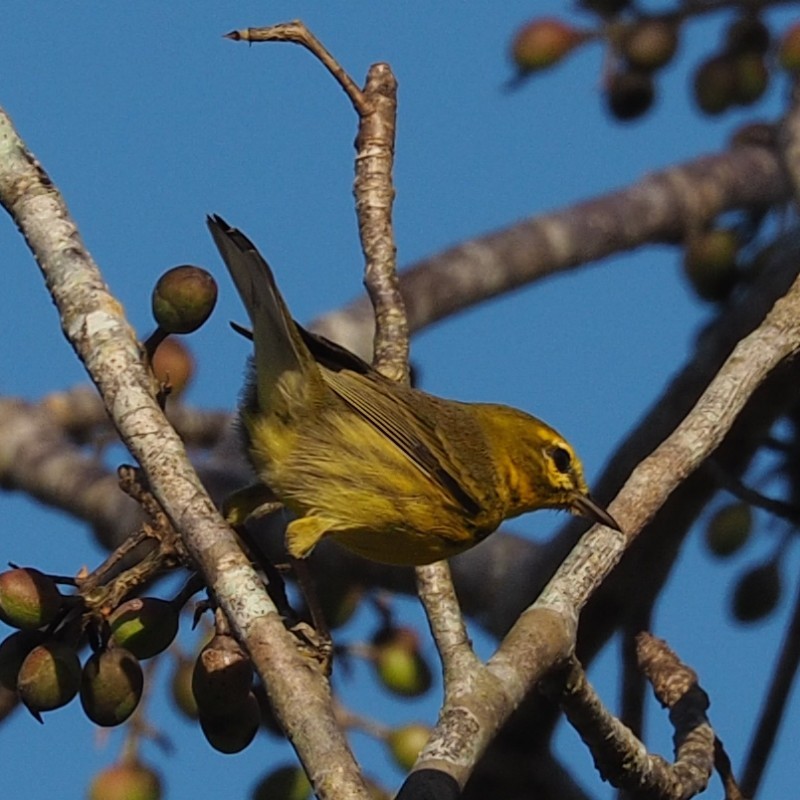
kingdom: Animalia
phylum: Chordata
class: Aves
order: Passeriformes
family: Parulidae
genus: Setophaga
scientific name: Setophaga discolor
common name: Prairie warbler
